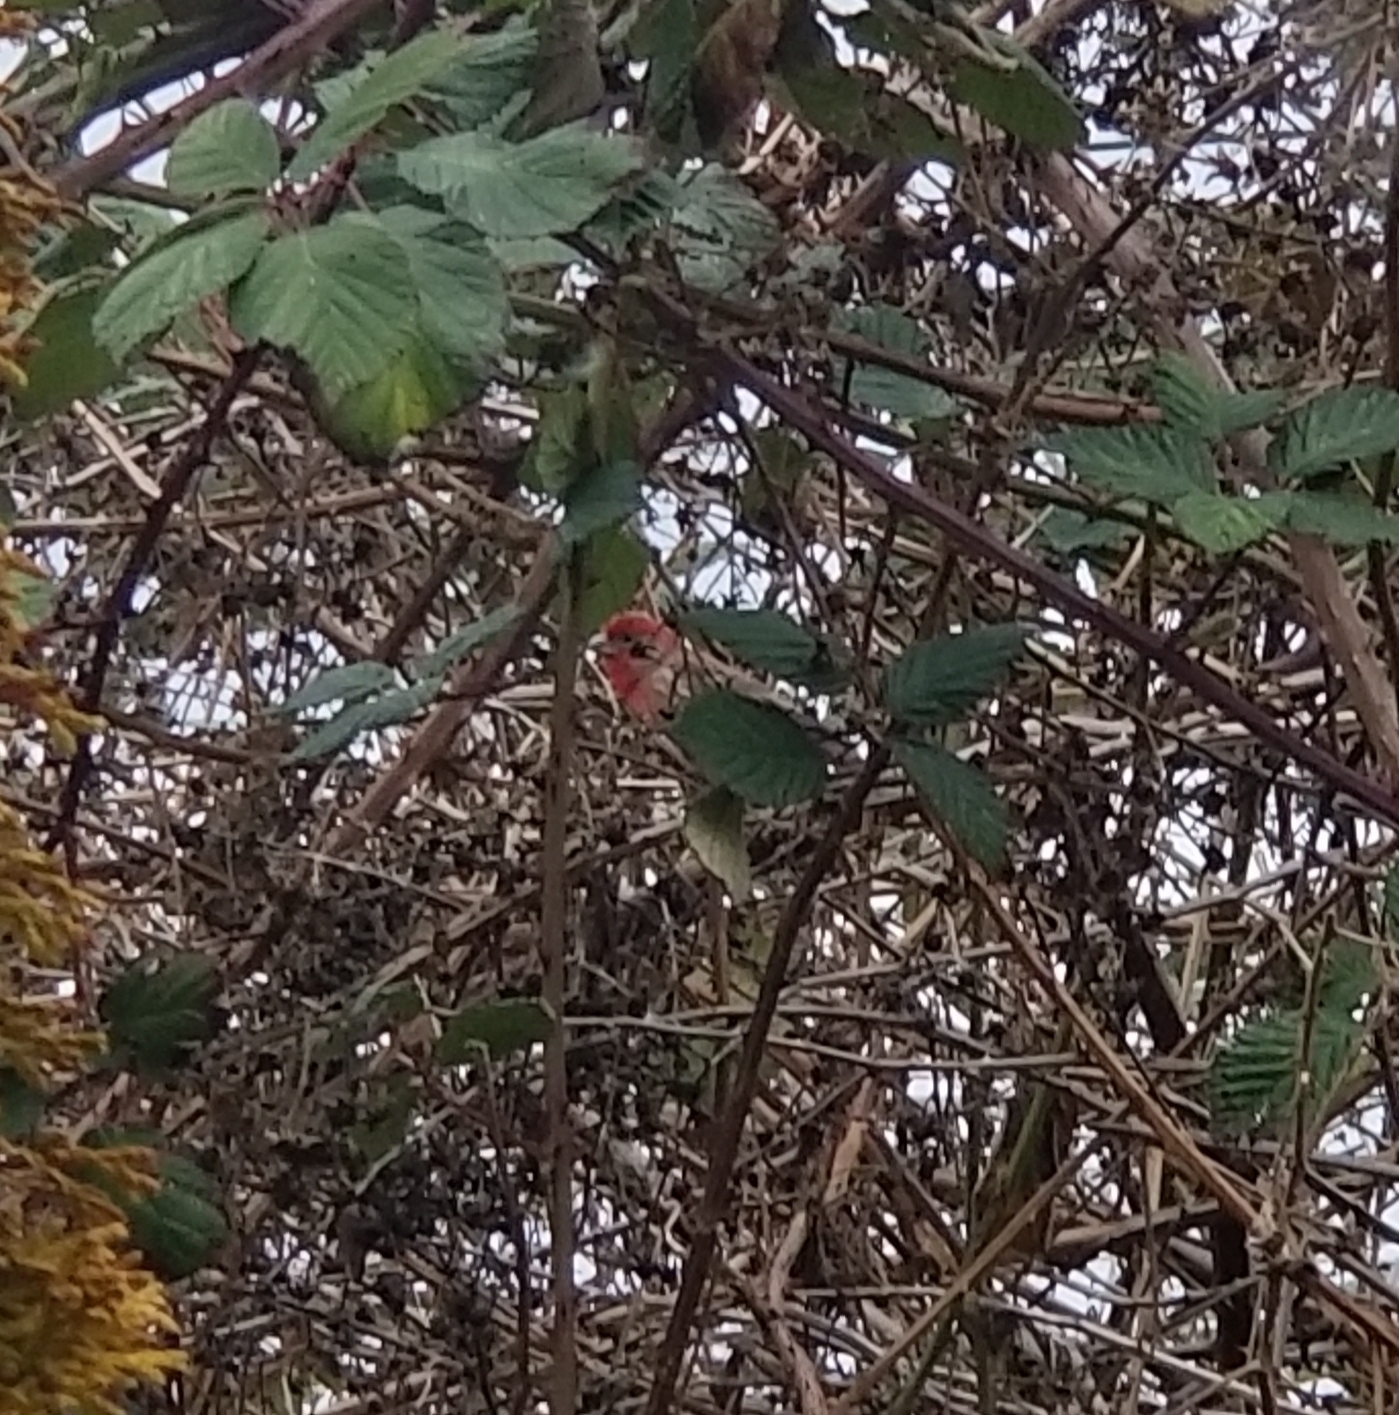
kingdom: Animalia
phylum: Chordata
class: Aves
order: Passeriformes
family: Fringillidae
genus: Haemorhous
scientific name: Haemorhous mexicanus
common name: House finch
